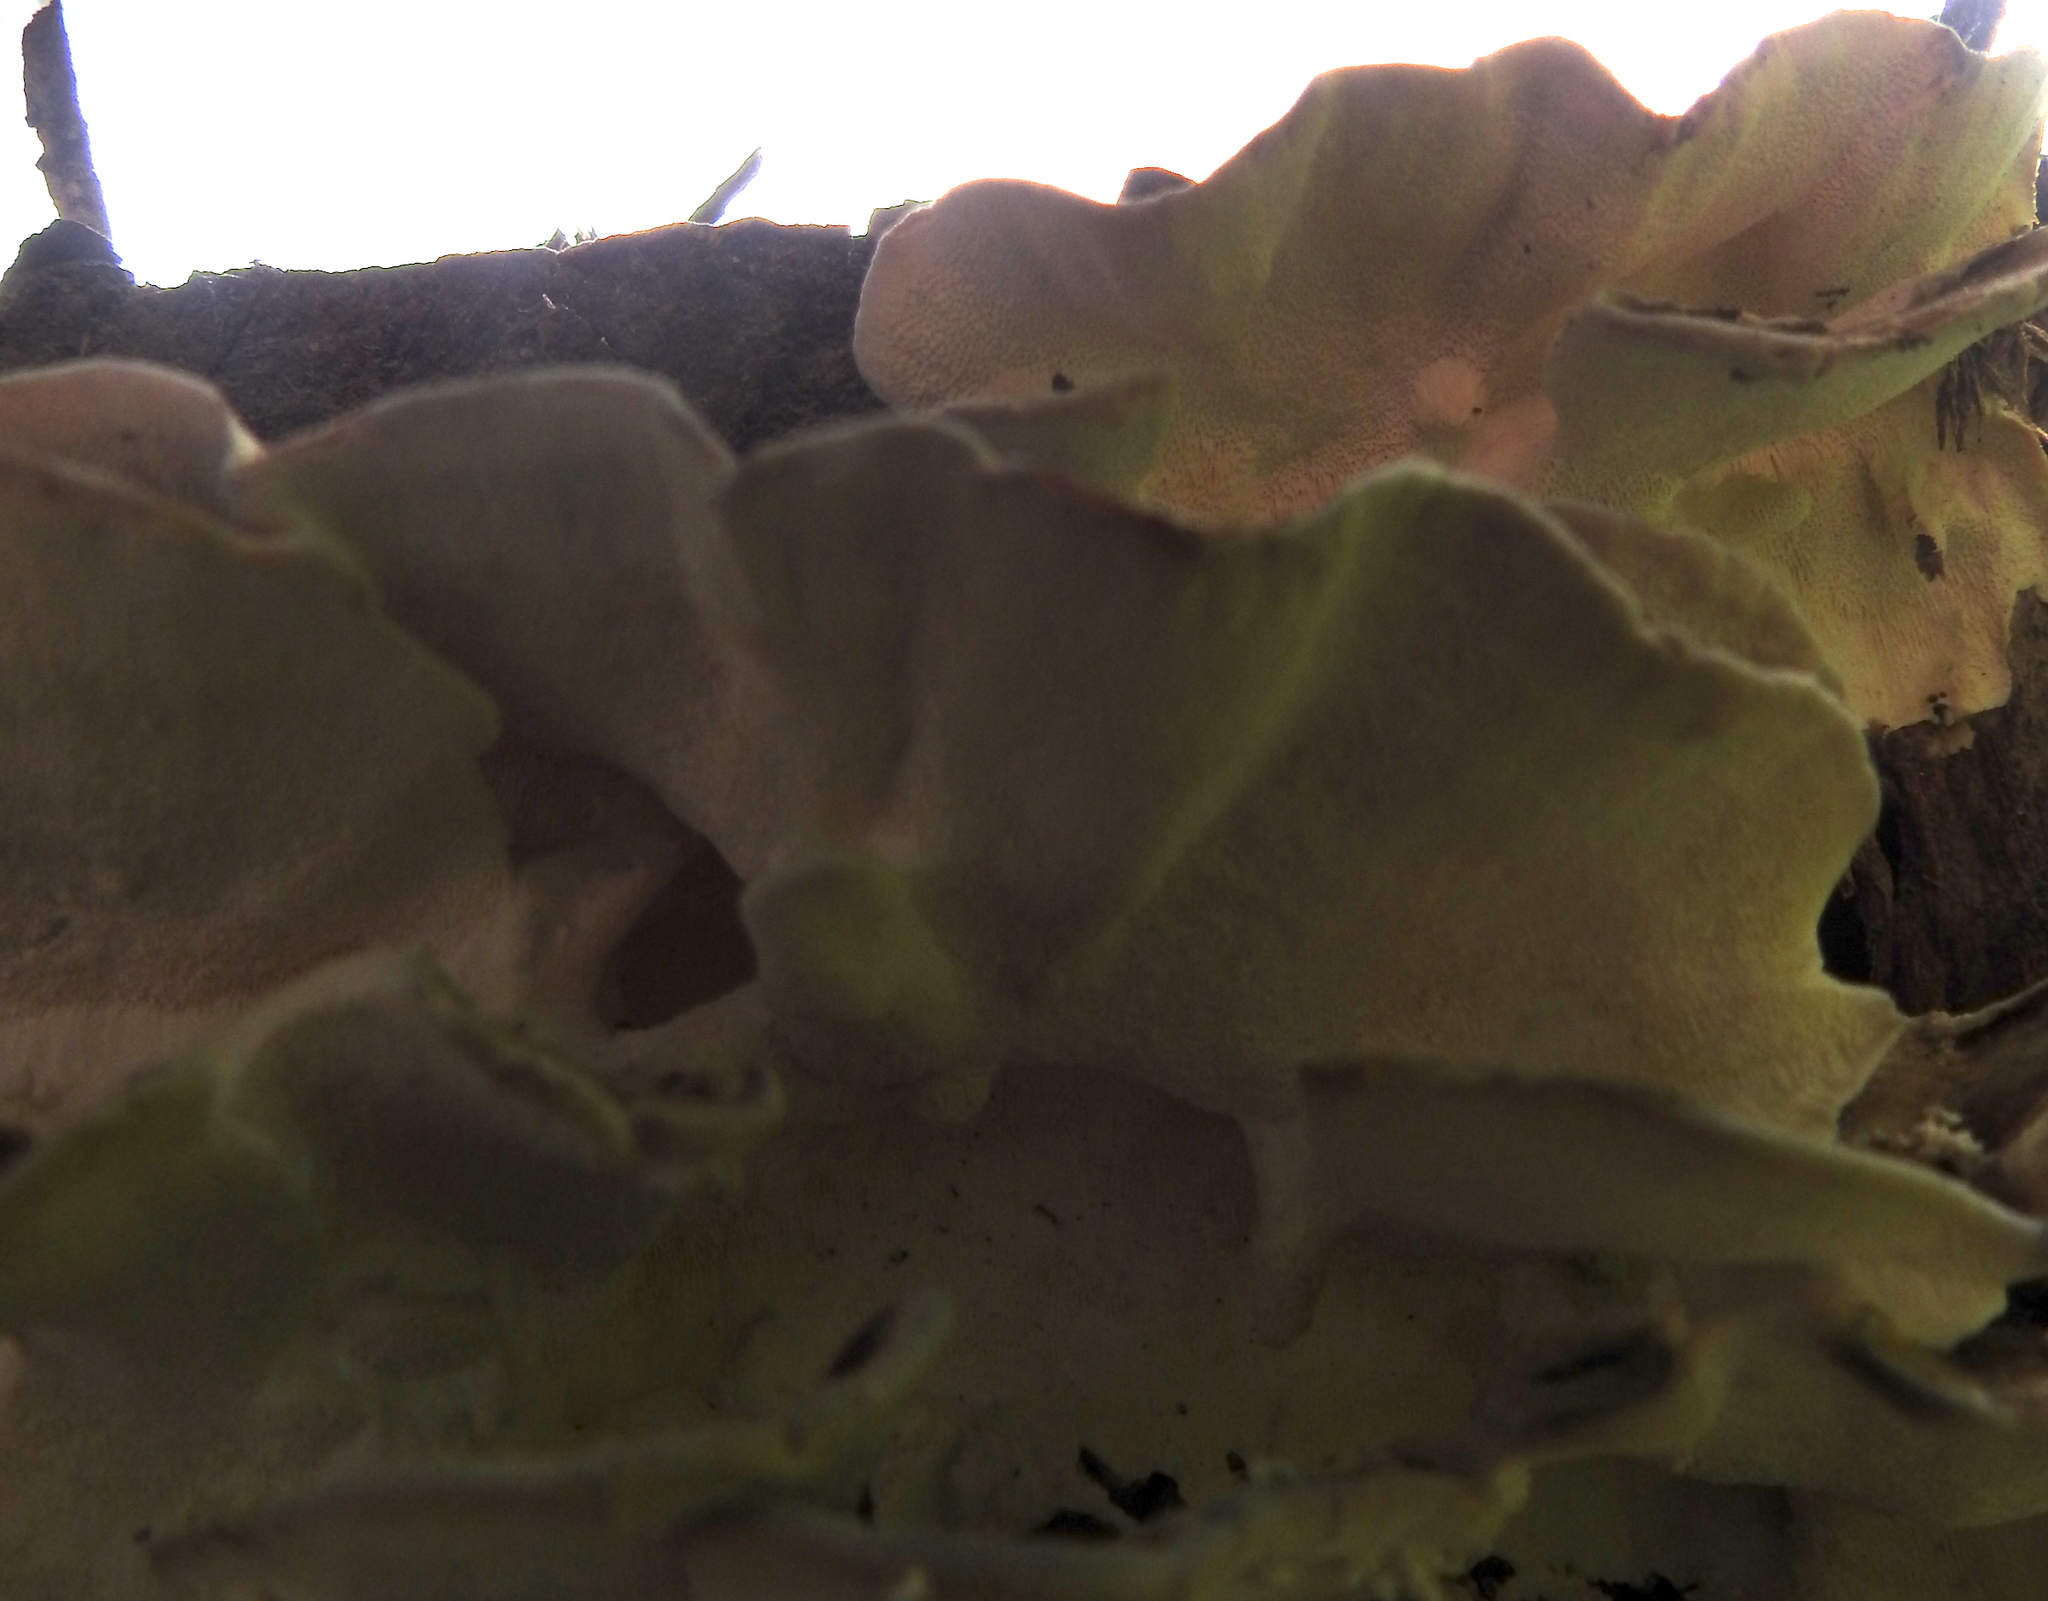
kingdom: Fungi
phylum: Basidiomycota
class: Agaricomycetes
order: Polyporales
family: Polyporaceae
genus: Trametes
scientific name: Trametes versicolor
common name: Turkeytail
